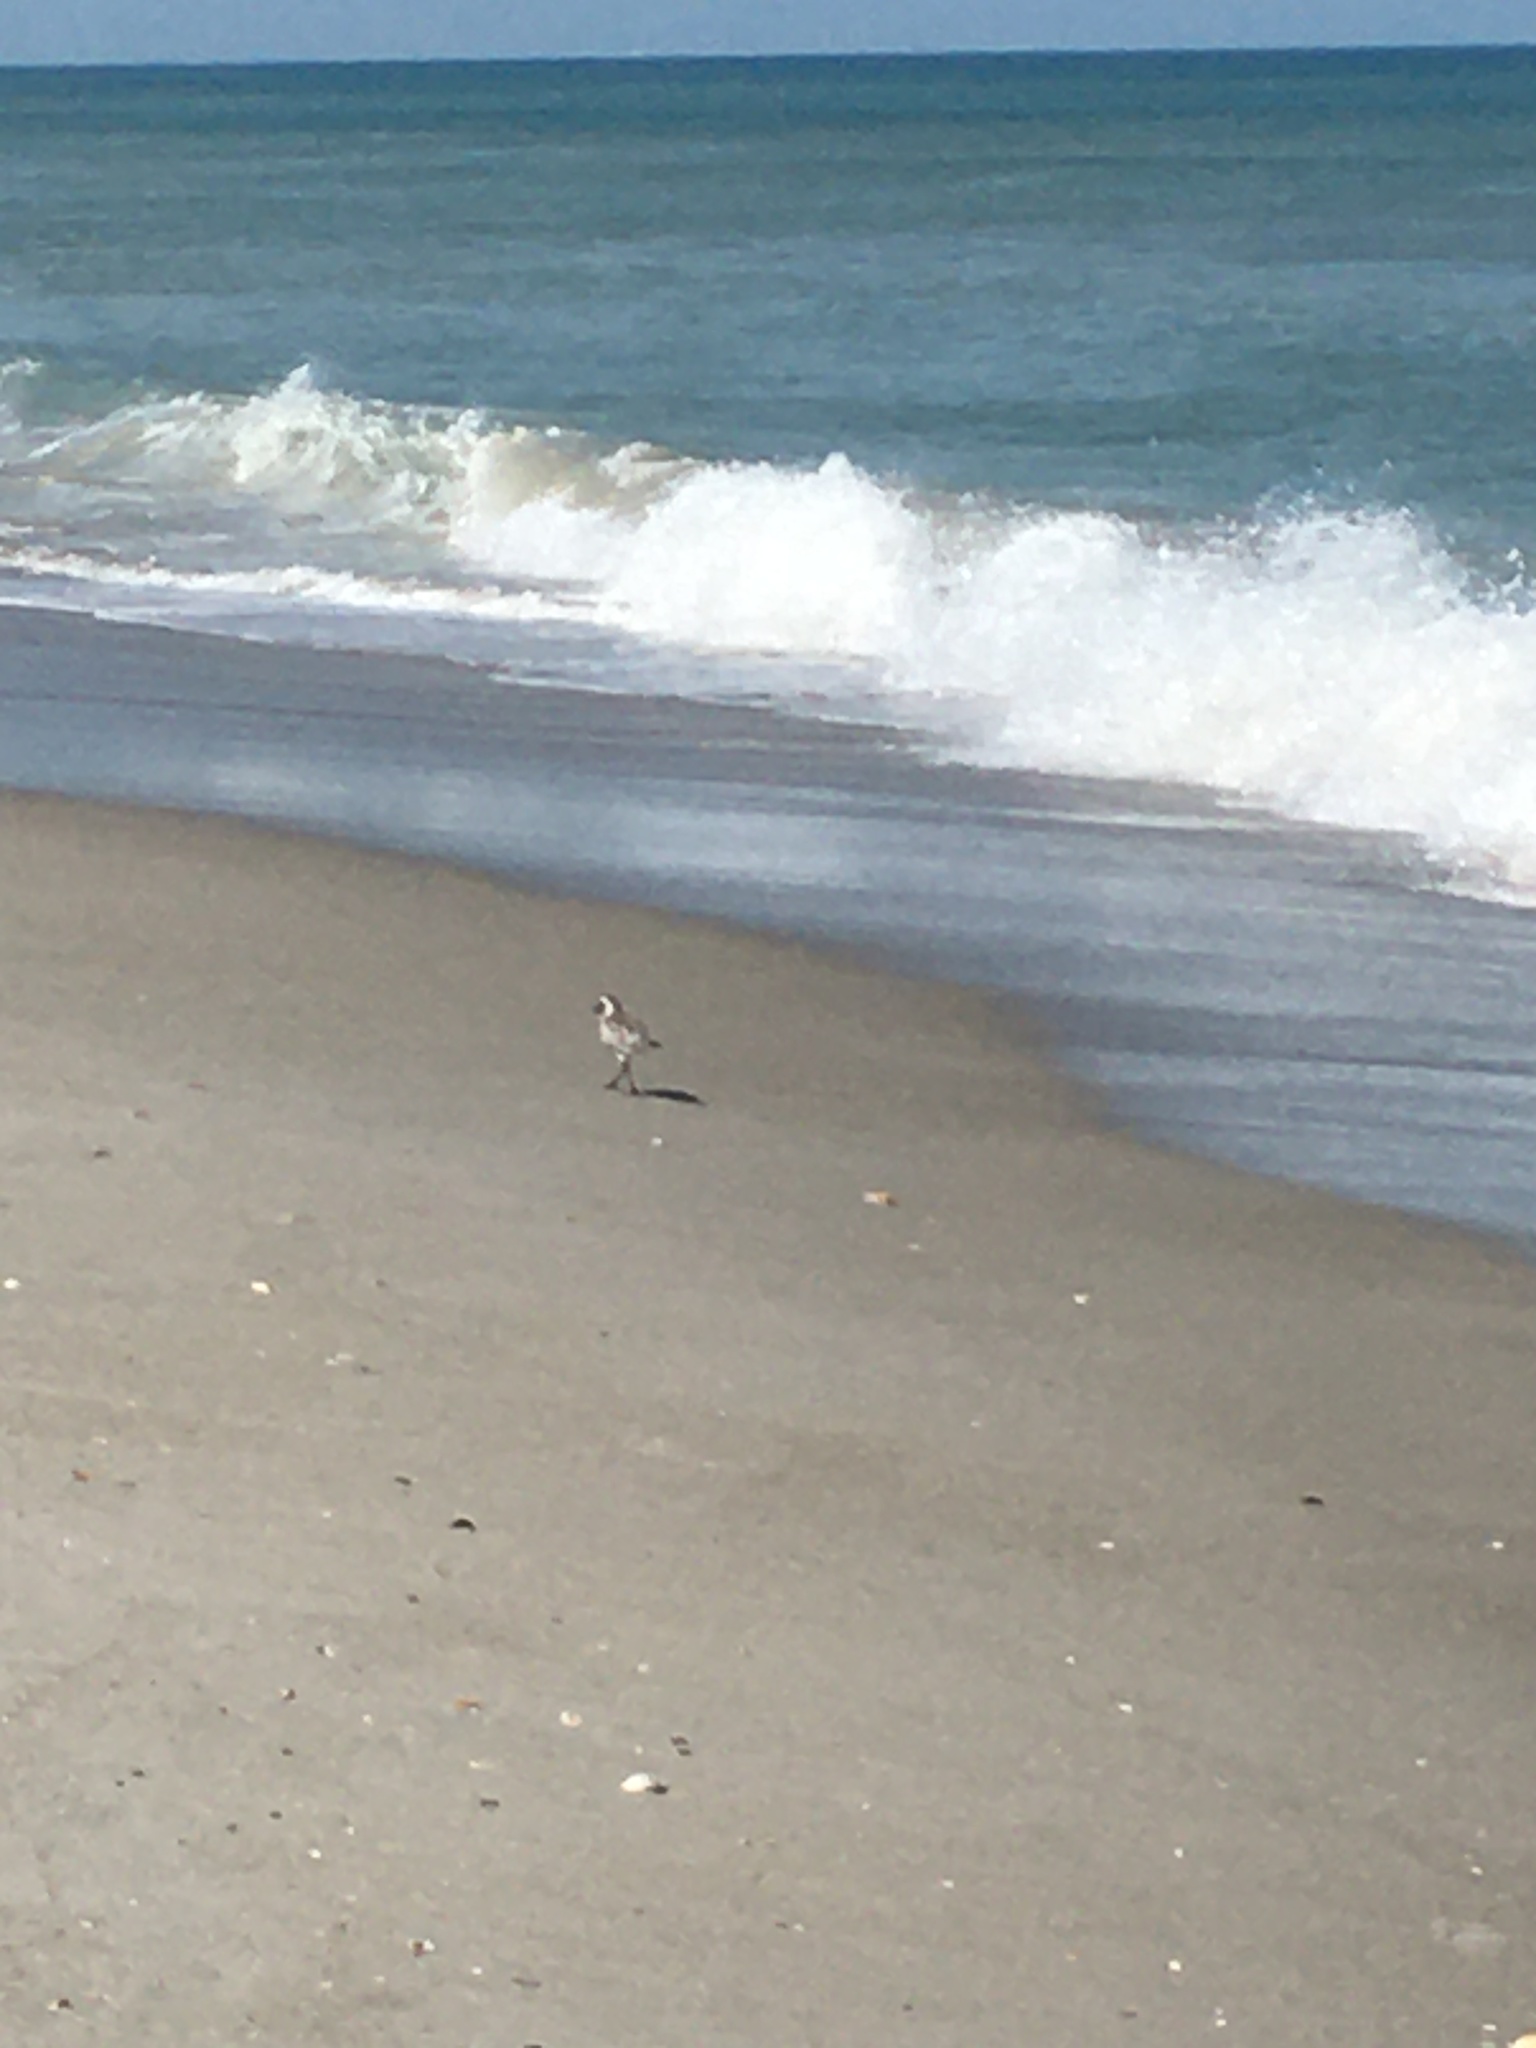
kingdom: Animalia
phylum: Chordata
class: Aves
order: Charadriiformes
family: Charadriidae
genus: Pluvialis
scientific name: Pluvialis squatarola
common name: Grey plover
